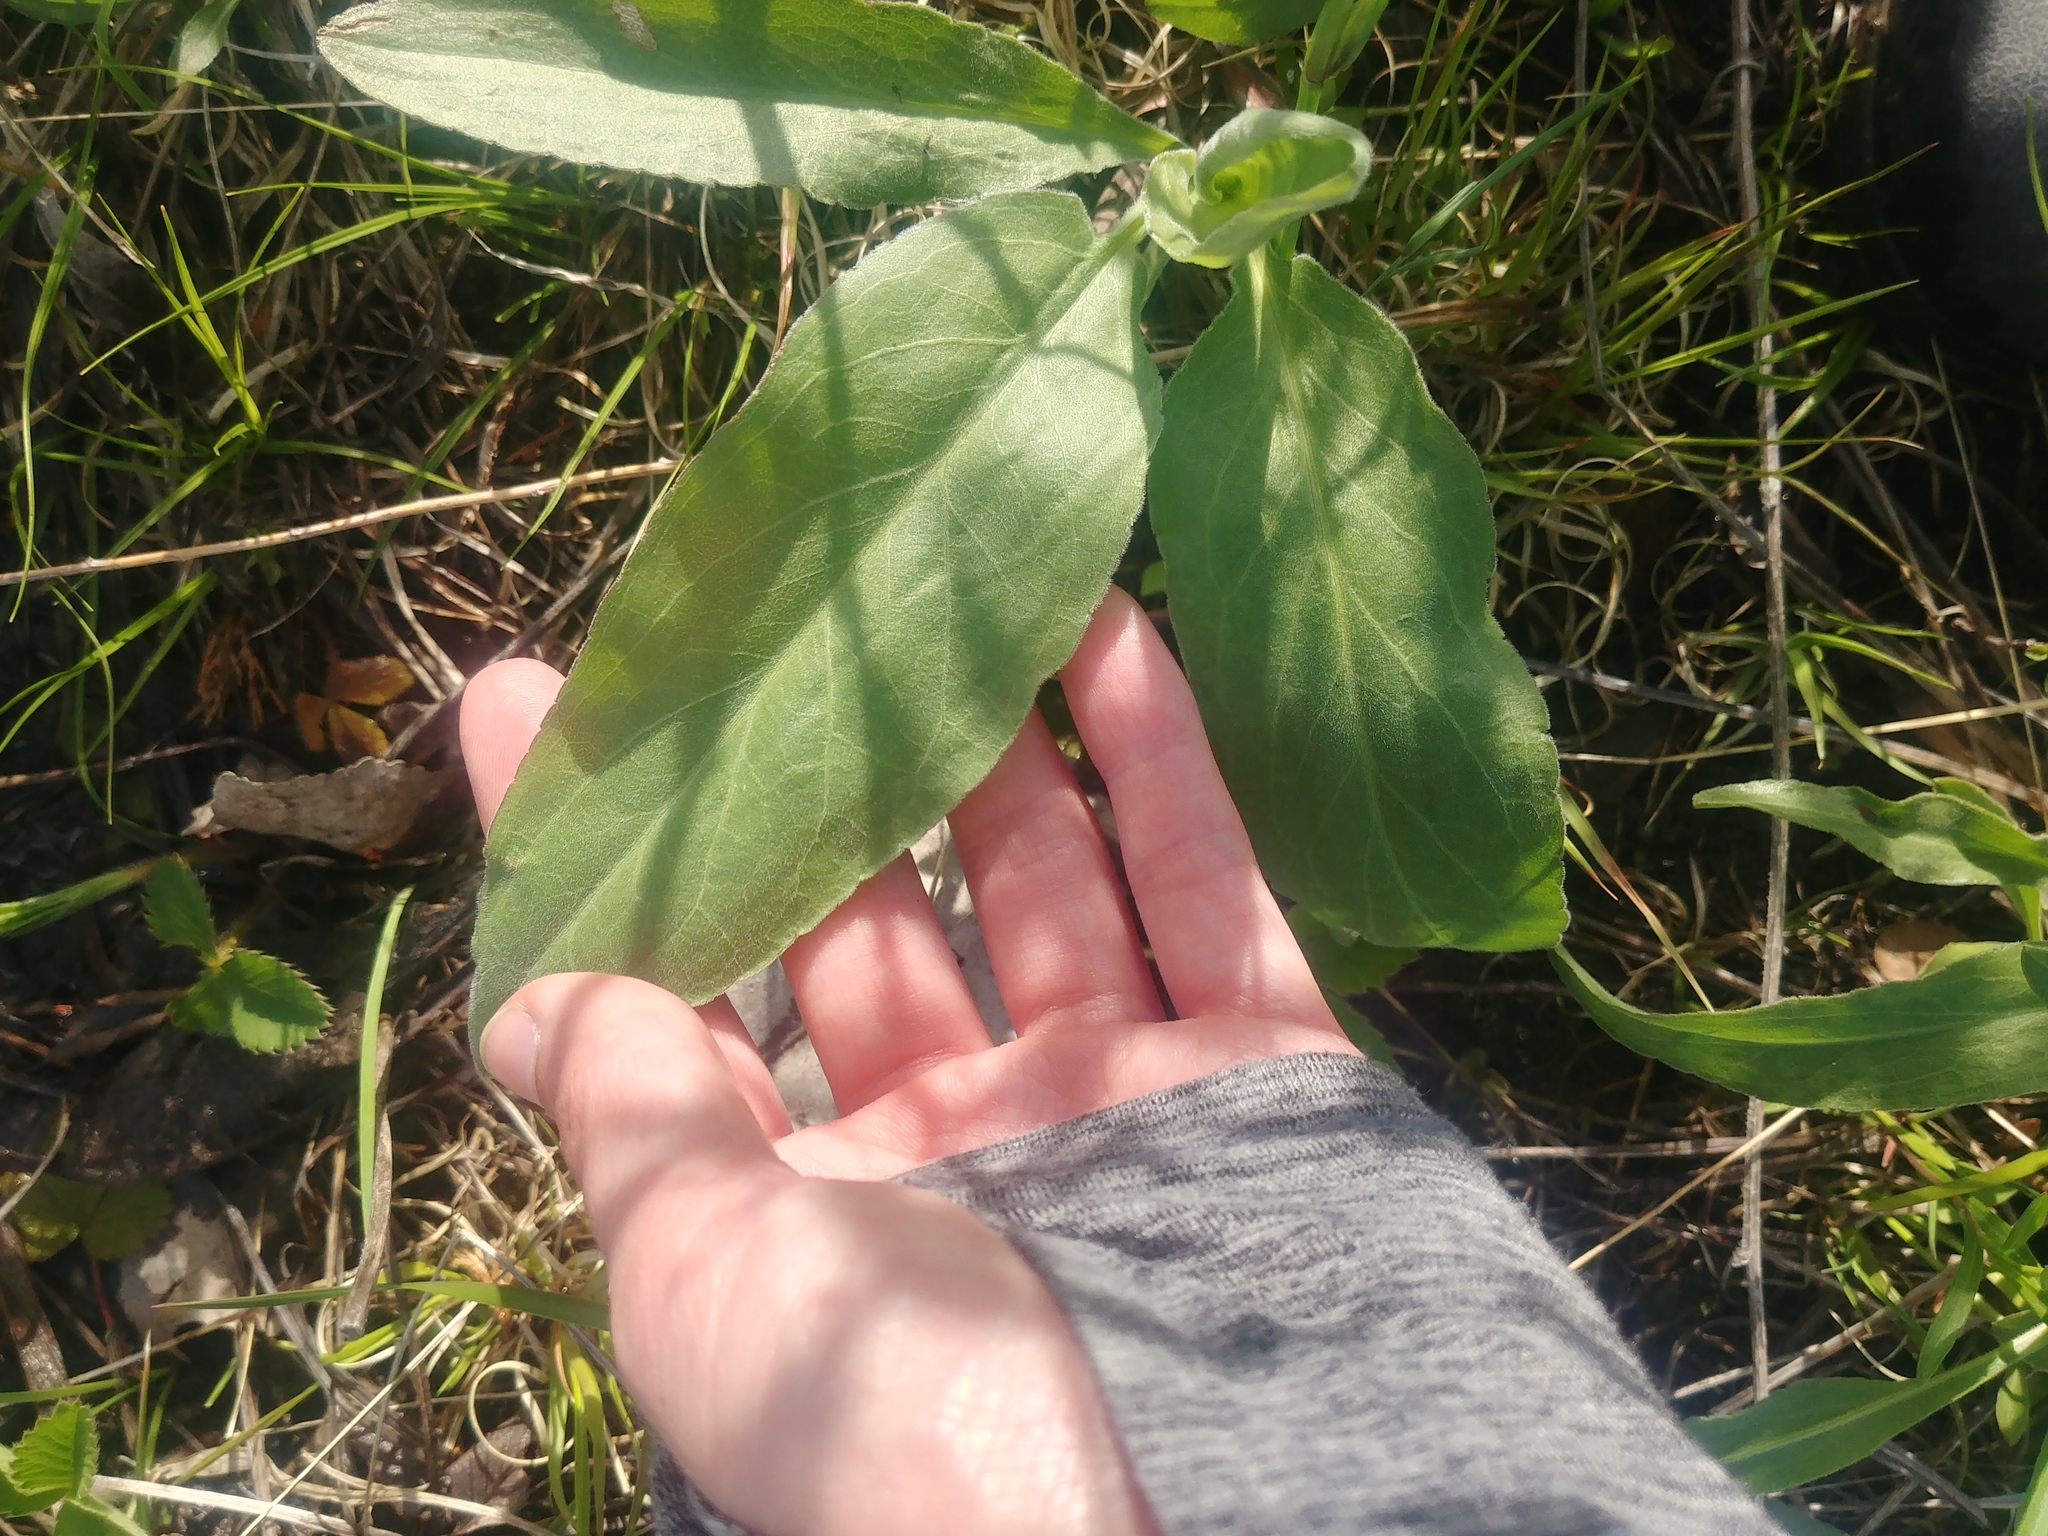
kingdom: Plantae
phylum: Tracheophyta
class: Magnoliopsida
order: Asterales
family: Asteraceae
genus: Solidago
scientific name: Solidago rigida
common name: Rigid goldenrod
